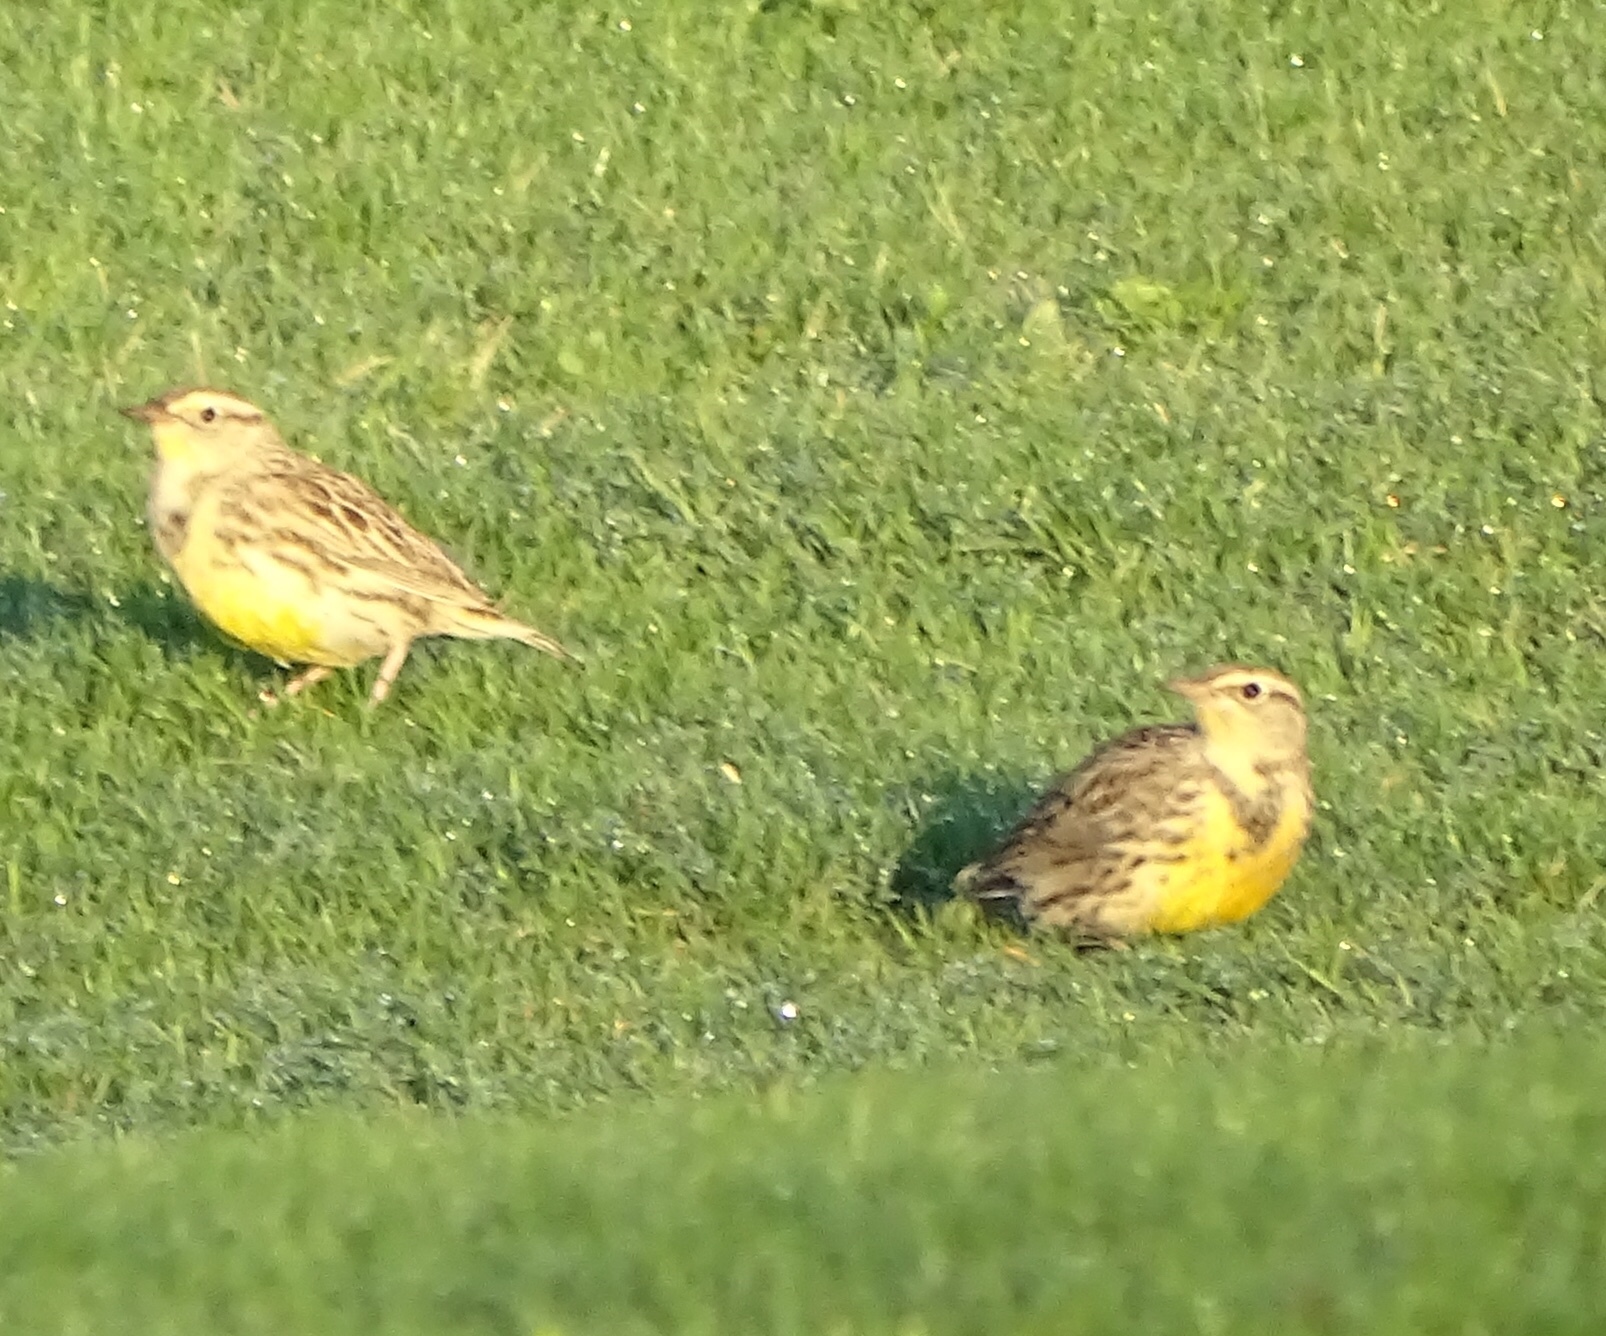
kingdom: Animalia
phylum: Chordata
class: Aves
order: Passeriformes
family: Icteridae
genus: Sturnella
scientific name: Sturnella neglecta
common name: Western meadowlark
